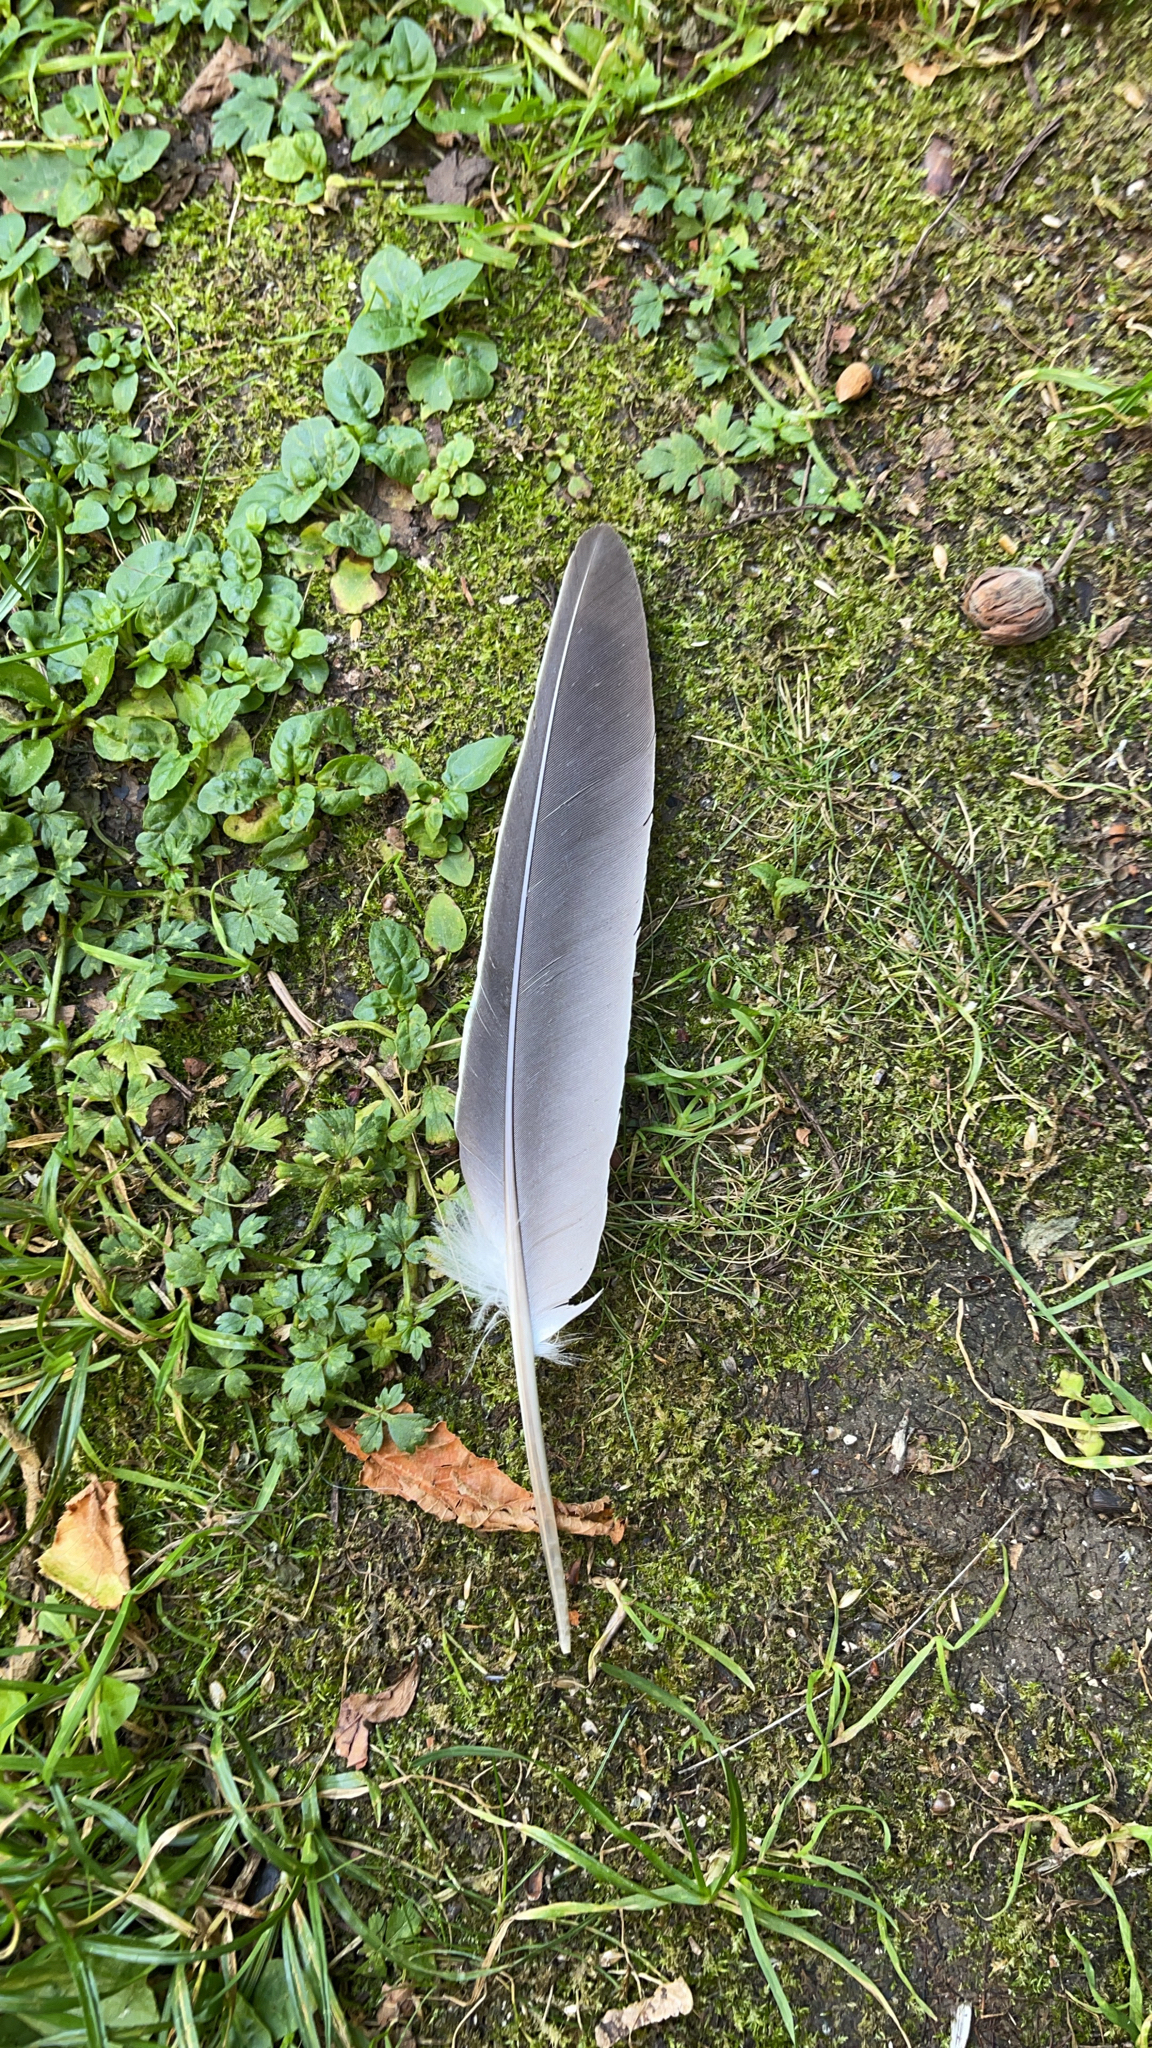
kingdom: Animalia
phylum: Chordata
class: Aves
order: Columbiformes
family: Columbidae
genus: Columba
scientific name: Columba palumbus
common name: Common wood pigeon
